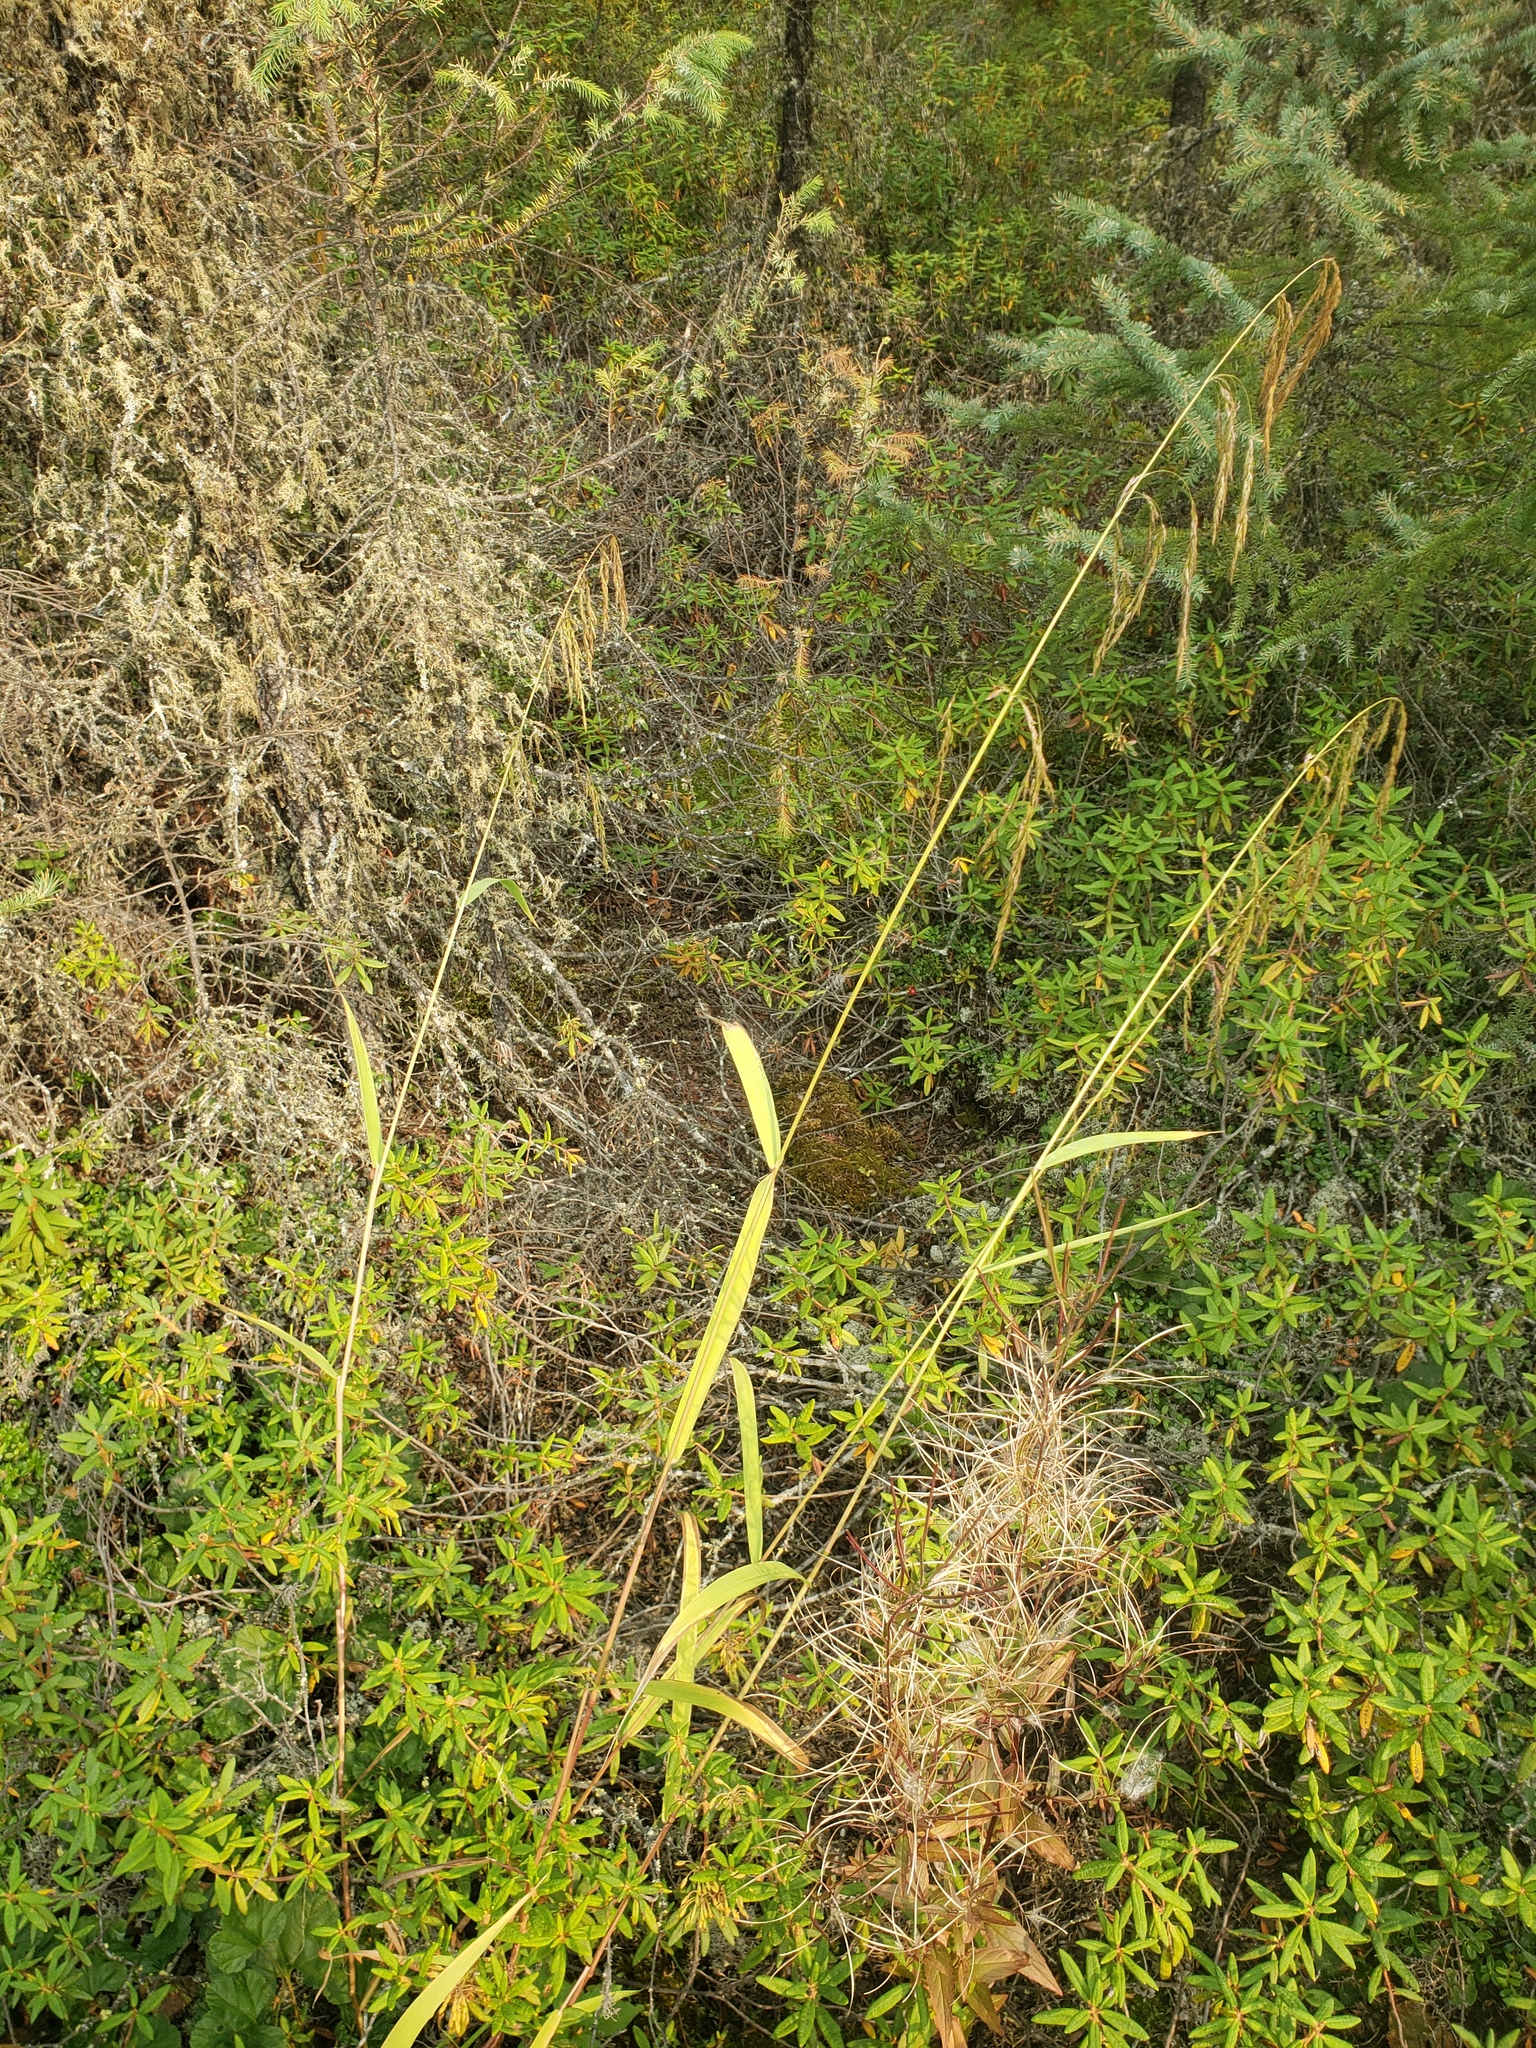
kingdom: Plantae
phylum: Tracheophyta
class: Liliopsida
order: Poales
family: Poaceae
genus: Cinna
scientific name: Cinna latifolia
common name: Drooping woodreed
